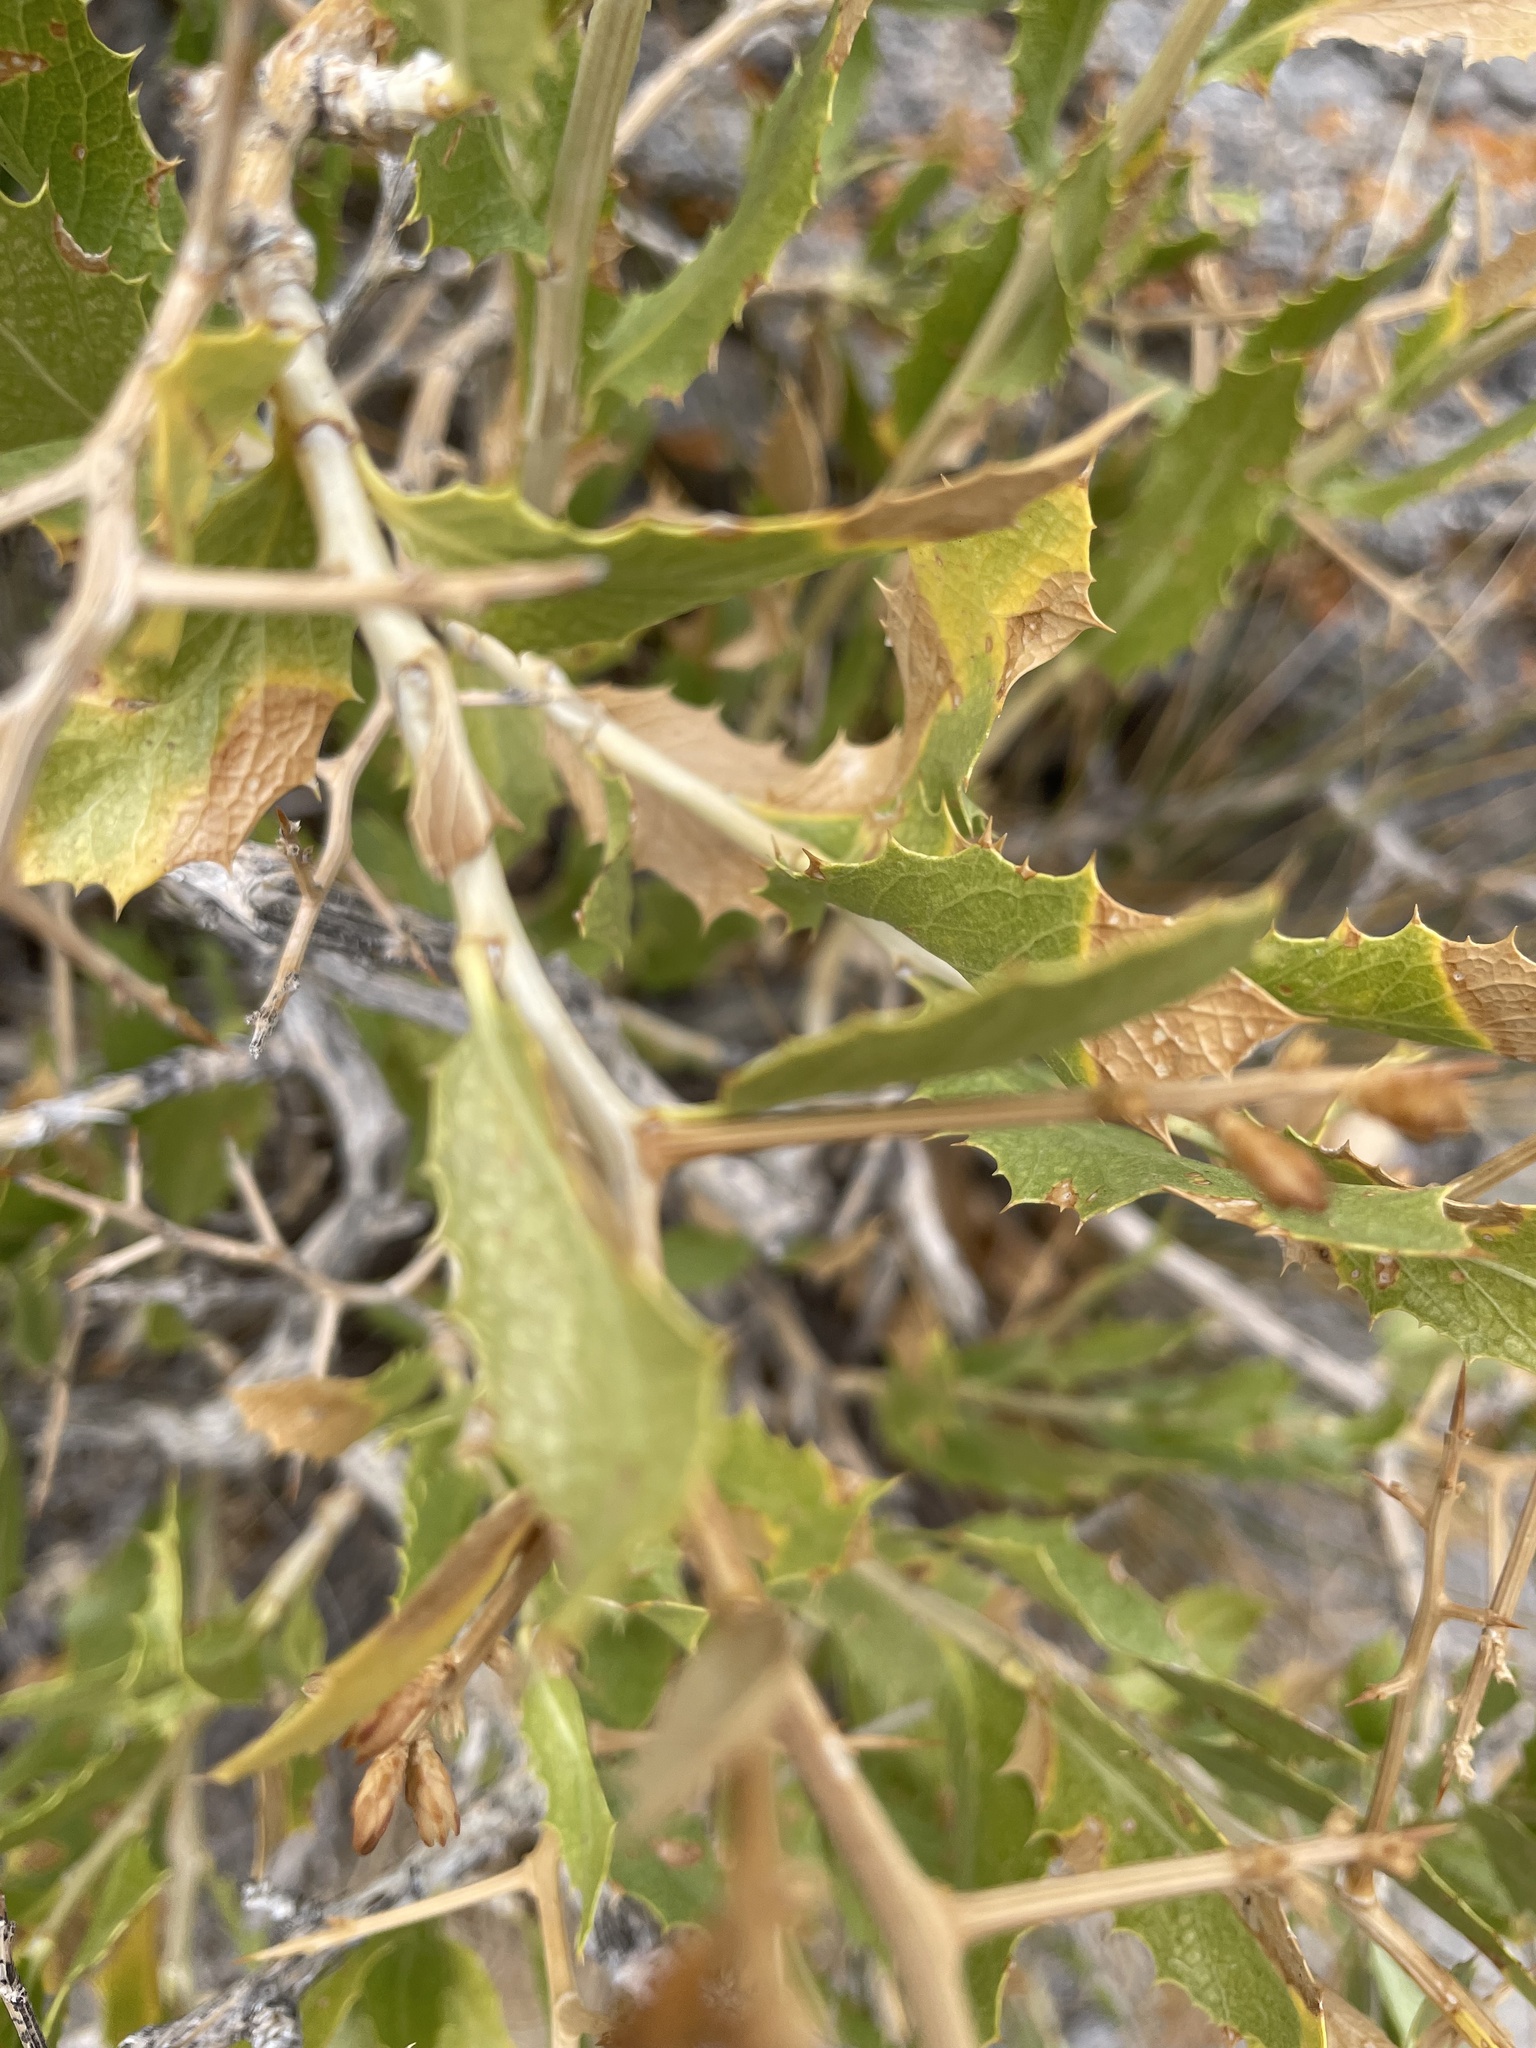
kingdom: Plantae
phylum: Tracheophyta
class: Magnoliopsida
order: Asterales
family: Asteraceae
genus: Proustia
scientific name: Proustia cuneifolia
